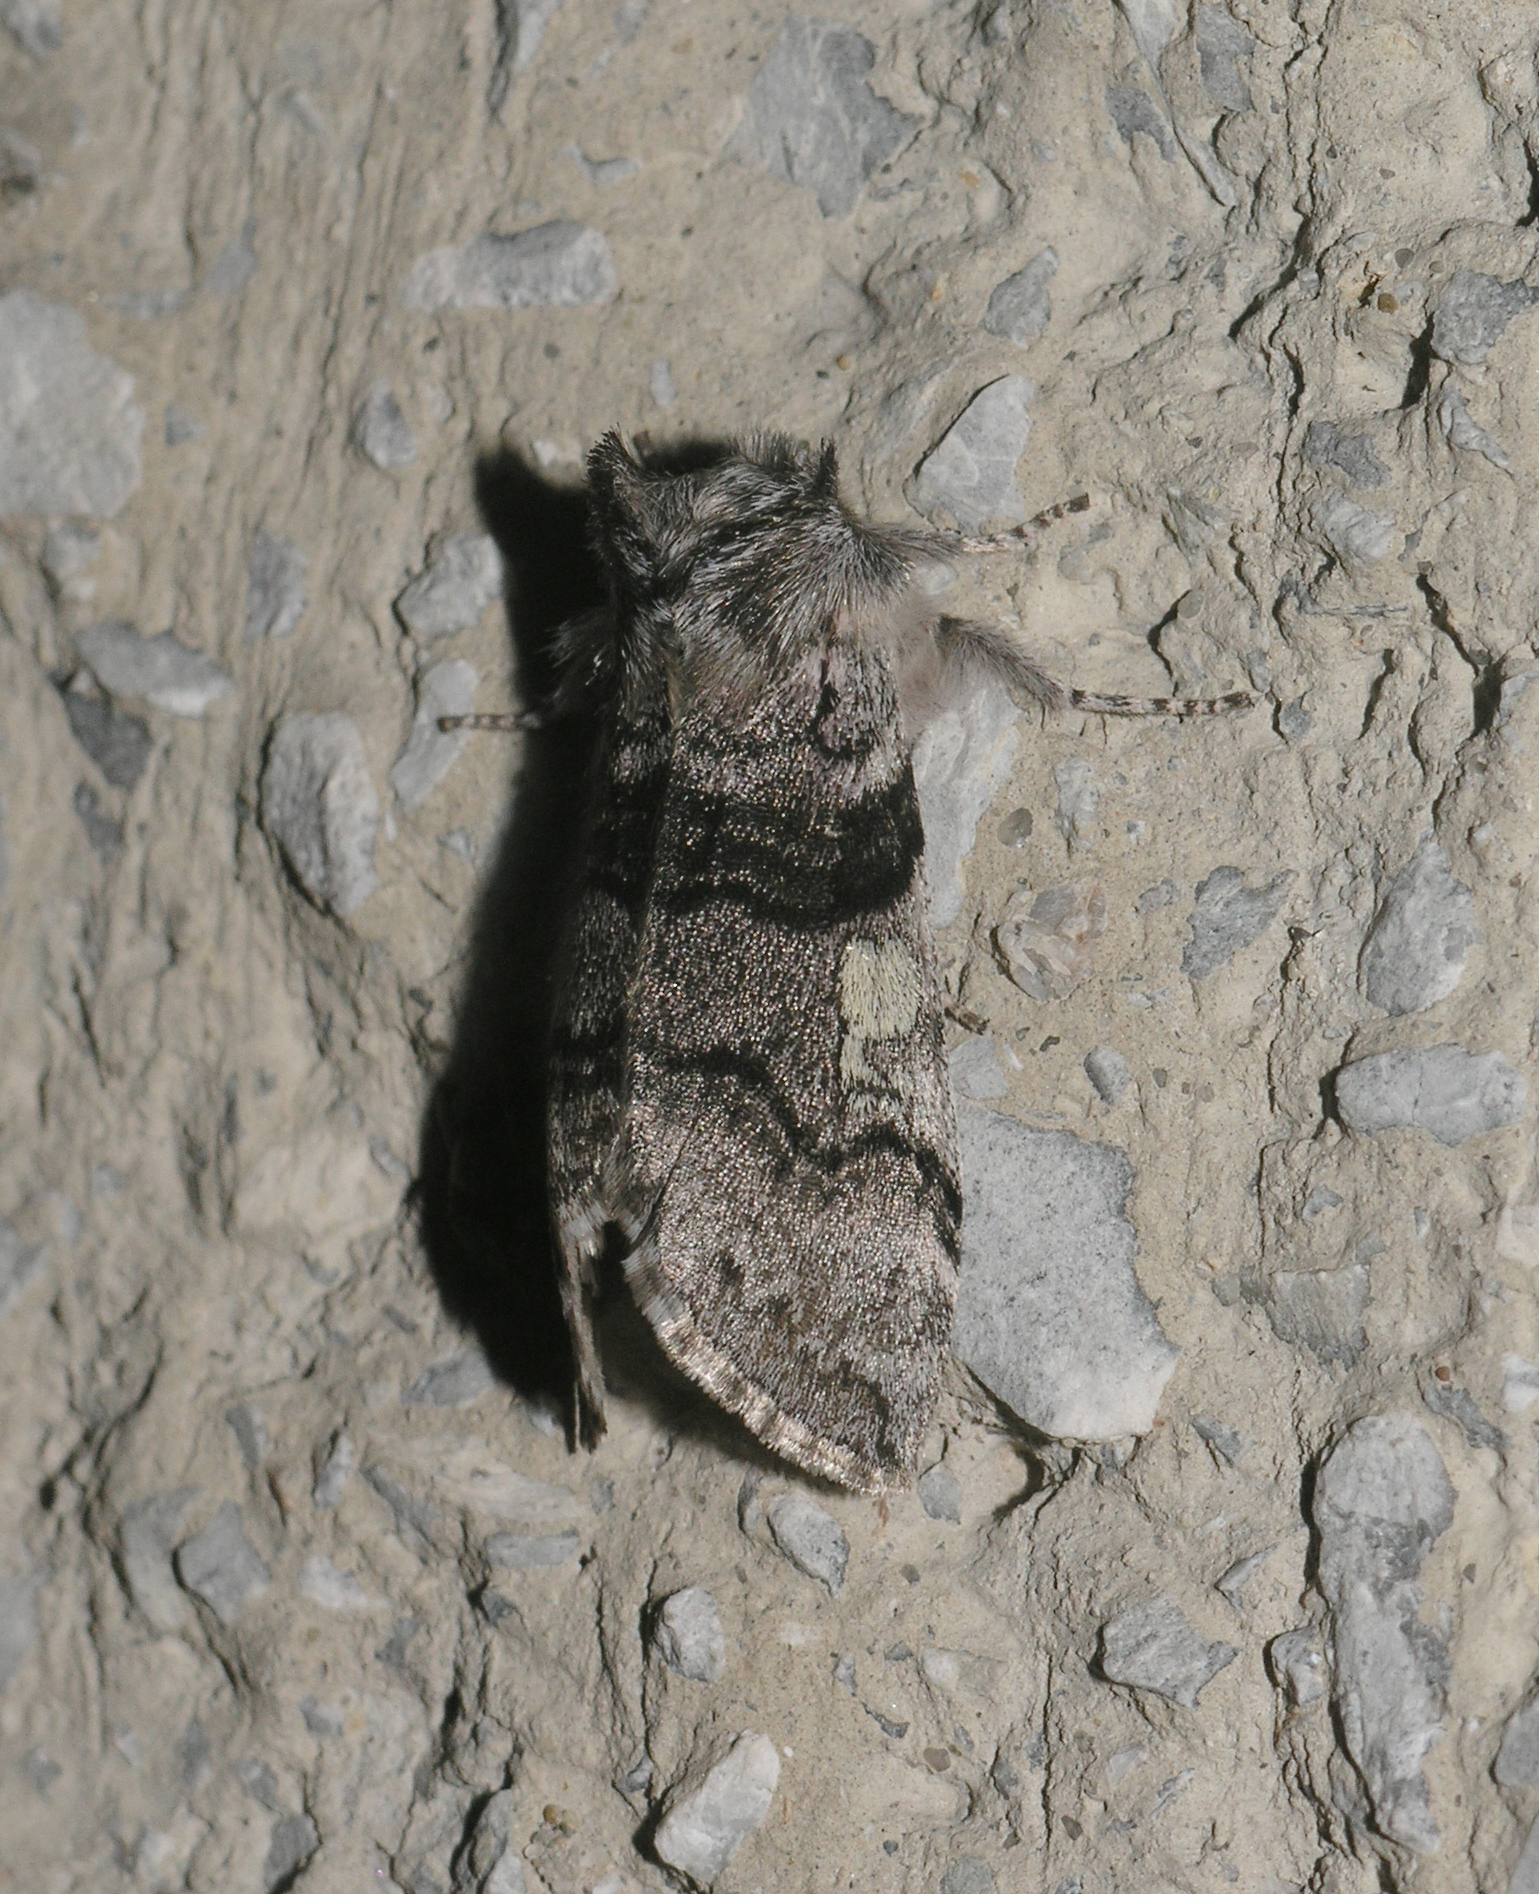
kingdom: Animalia
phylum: Arthropoda
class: Insecta
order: Lepidoptera
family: Drepanidae
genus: Achlya
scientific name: Achlya flavicornis
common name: Yellow horned
